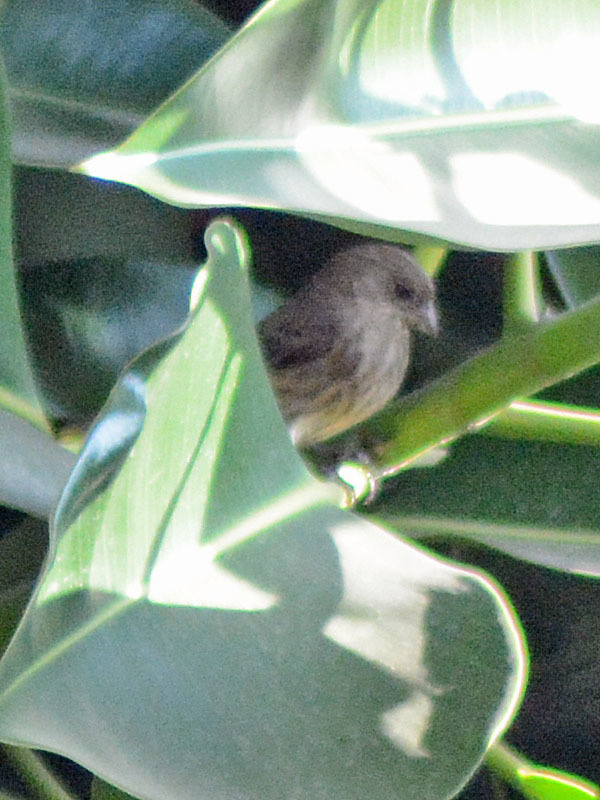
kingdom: Animalia
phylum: Chordata
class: Aves
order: Passeriformes
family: Fringillidae
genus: Haemorhous
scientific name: Haemorhous mexicanus
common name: House finch
